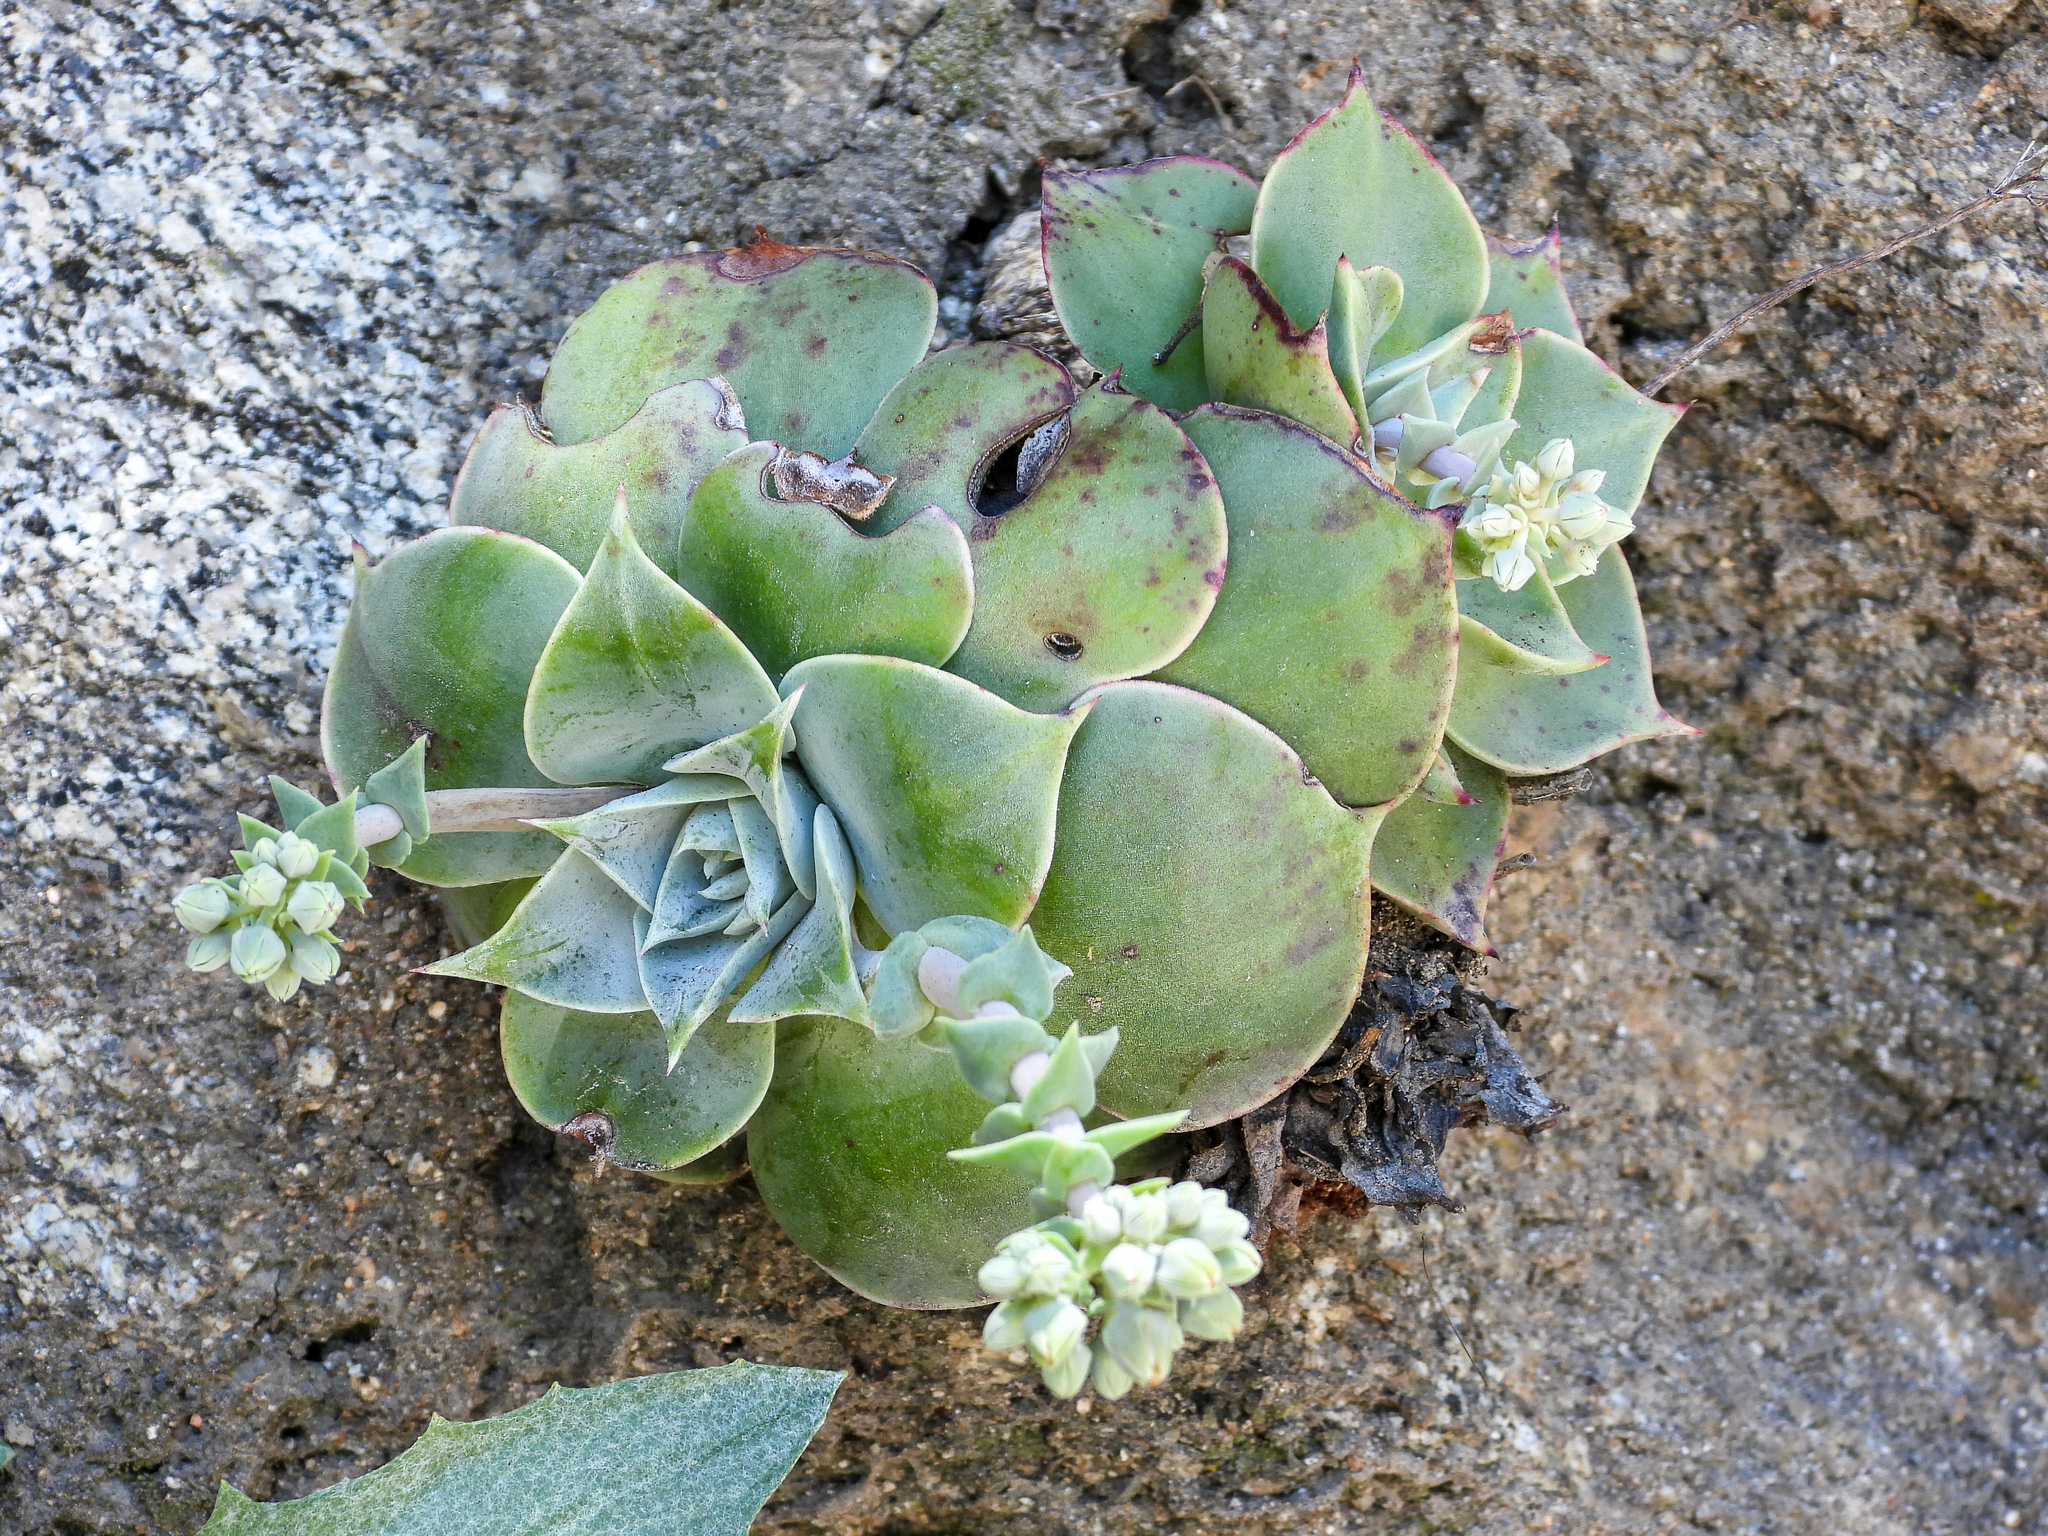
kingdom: Plantae
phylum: Tracheophyta
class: Magnoliopsida
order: Saxifragales
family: Crassulaceae
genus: Dudleya
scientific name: Dudleya cymosa
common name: Canyon dudleya
